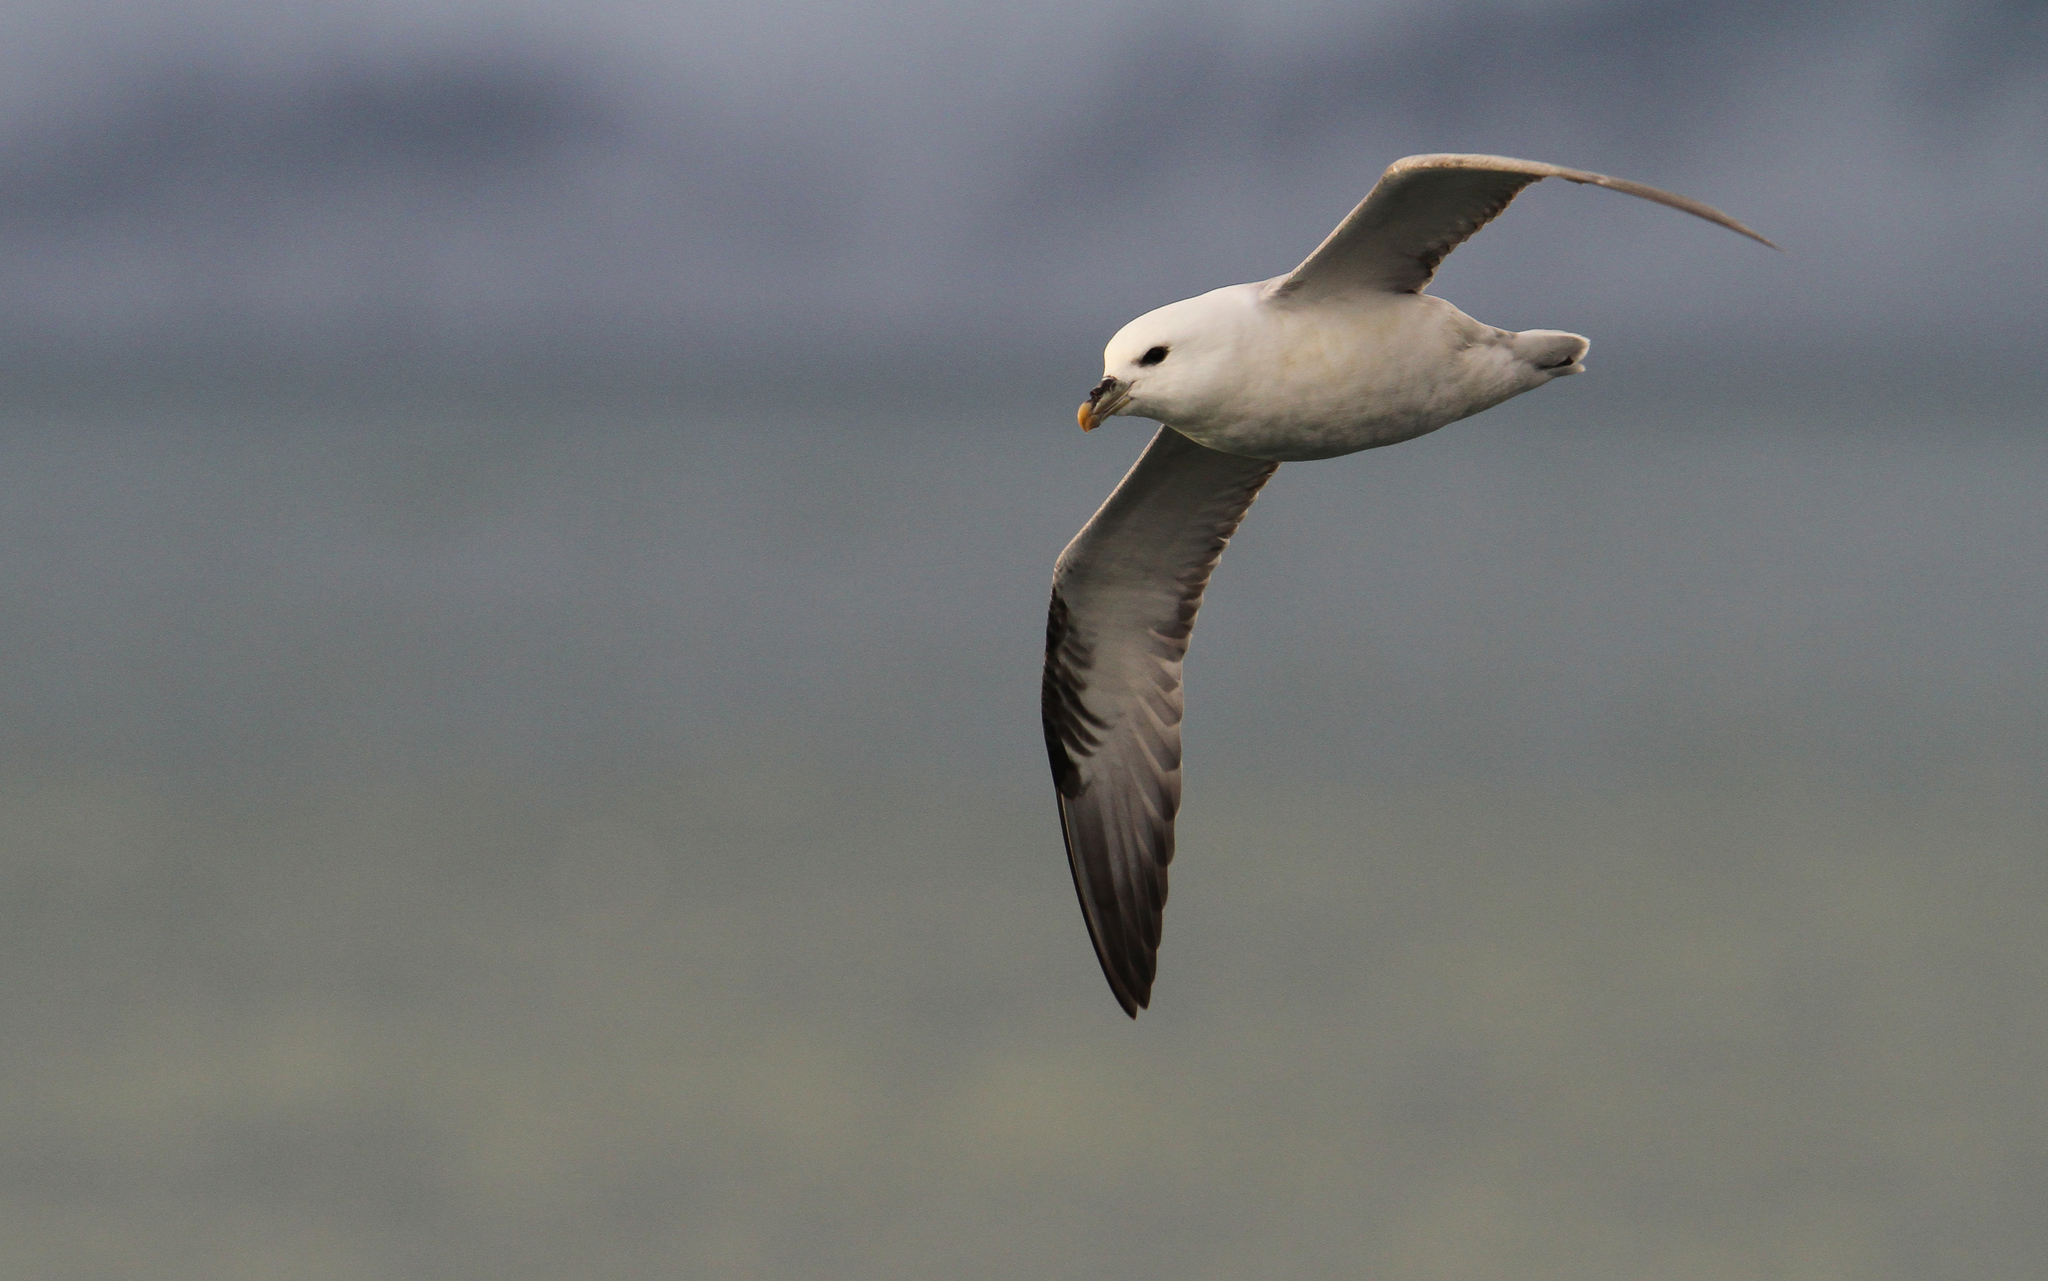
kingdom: Animalia
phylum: Chordata
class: Aves
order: Procellariiformes
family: Procellariidae
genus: Fulmarus
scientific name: Fulmarus glacialis
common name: Northern fulmar
